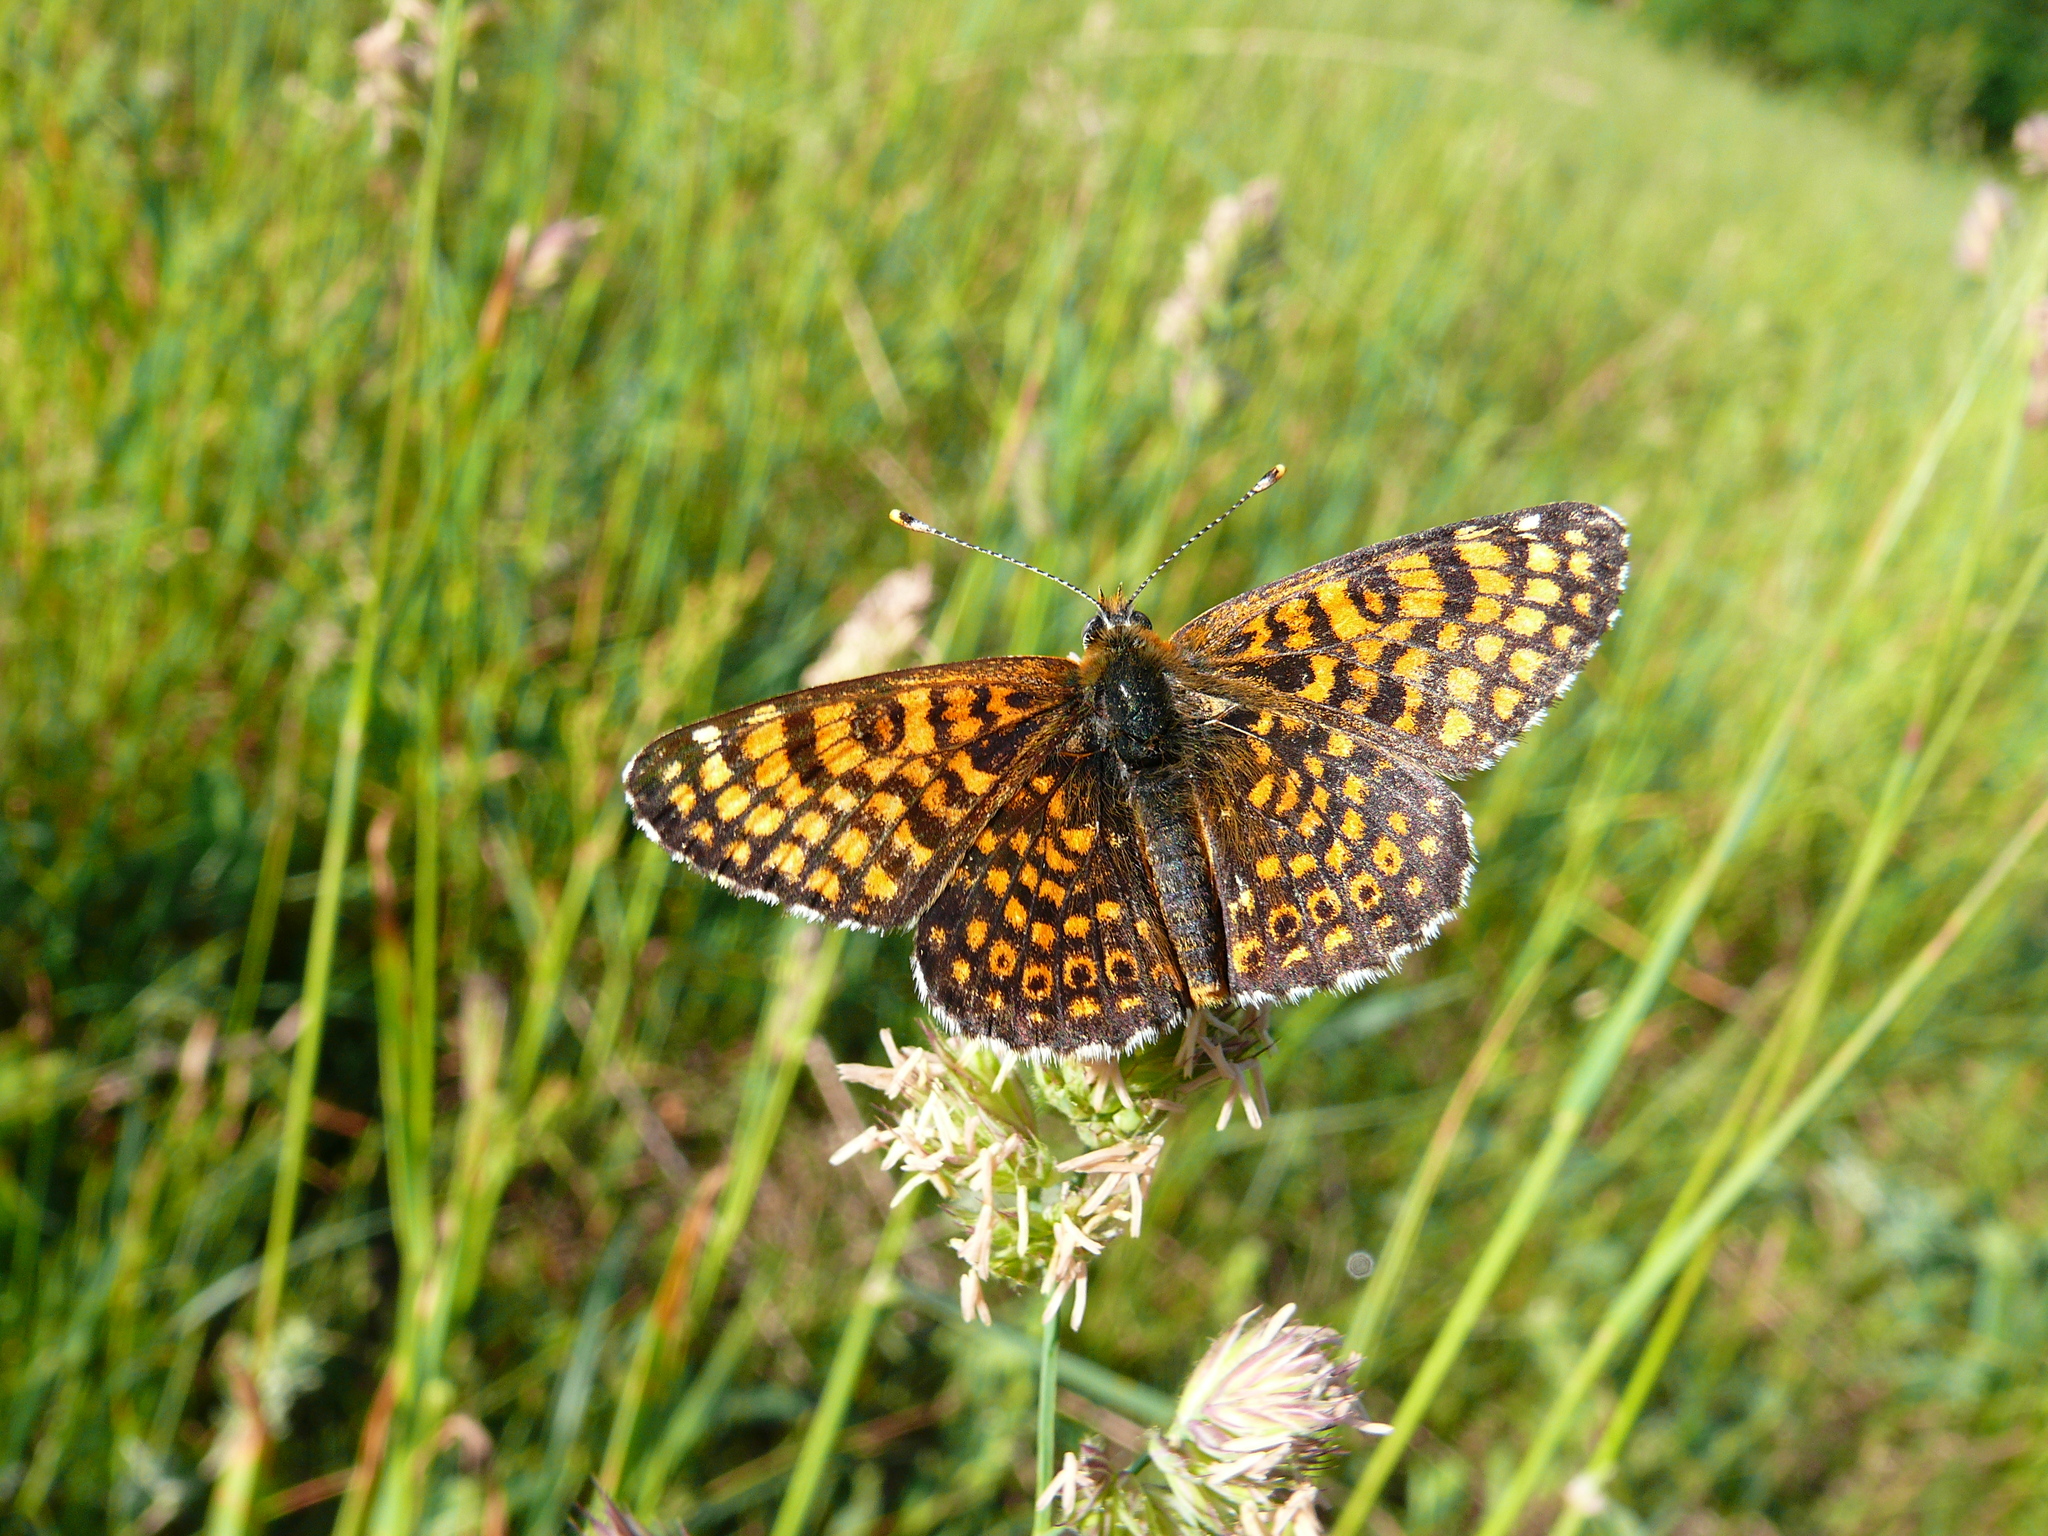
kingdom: Animalia
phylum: Arthropoda
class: Insecta
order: Lepidoptera
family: Nymphalidae
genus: Melitaea
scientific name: Melitaea cinxia
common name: Glanville fritillary
